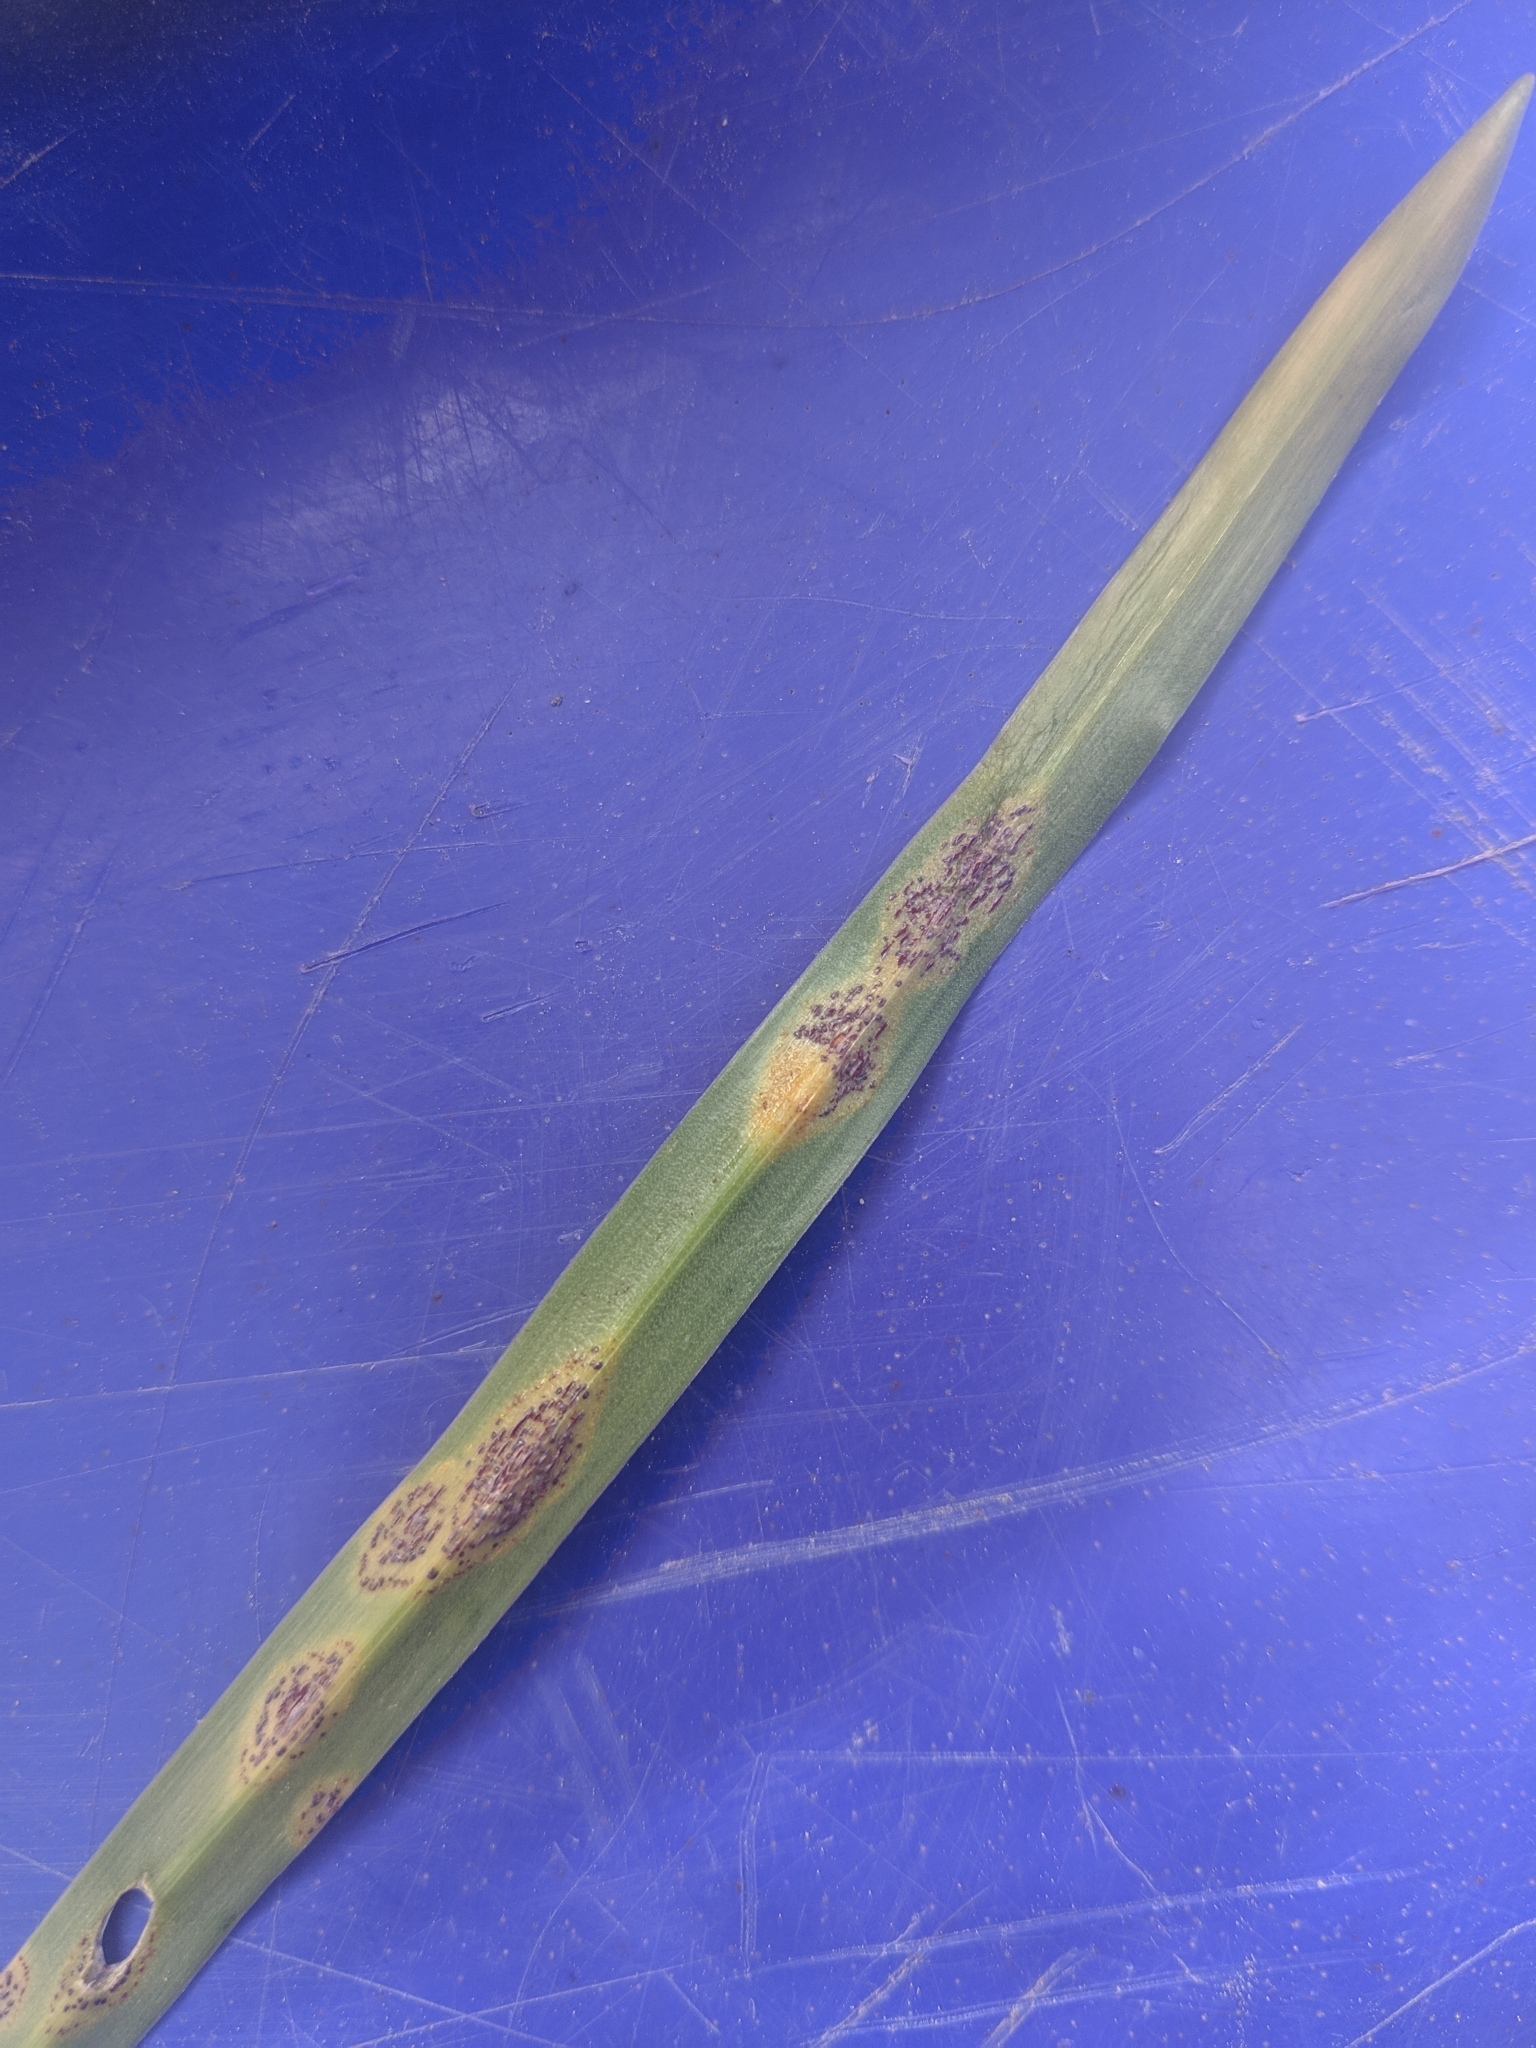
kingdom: Fungi
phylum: Basidiomycota
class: Pucciniomycetes
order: Pucciniales
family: Pucciniaceae
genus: Uromyces
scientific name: Uromyces hyacinthi
